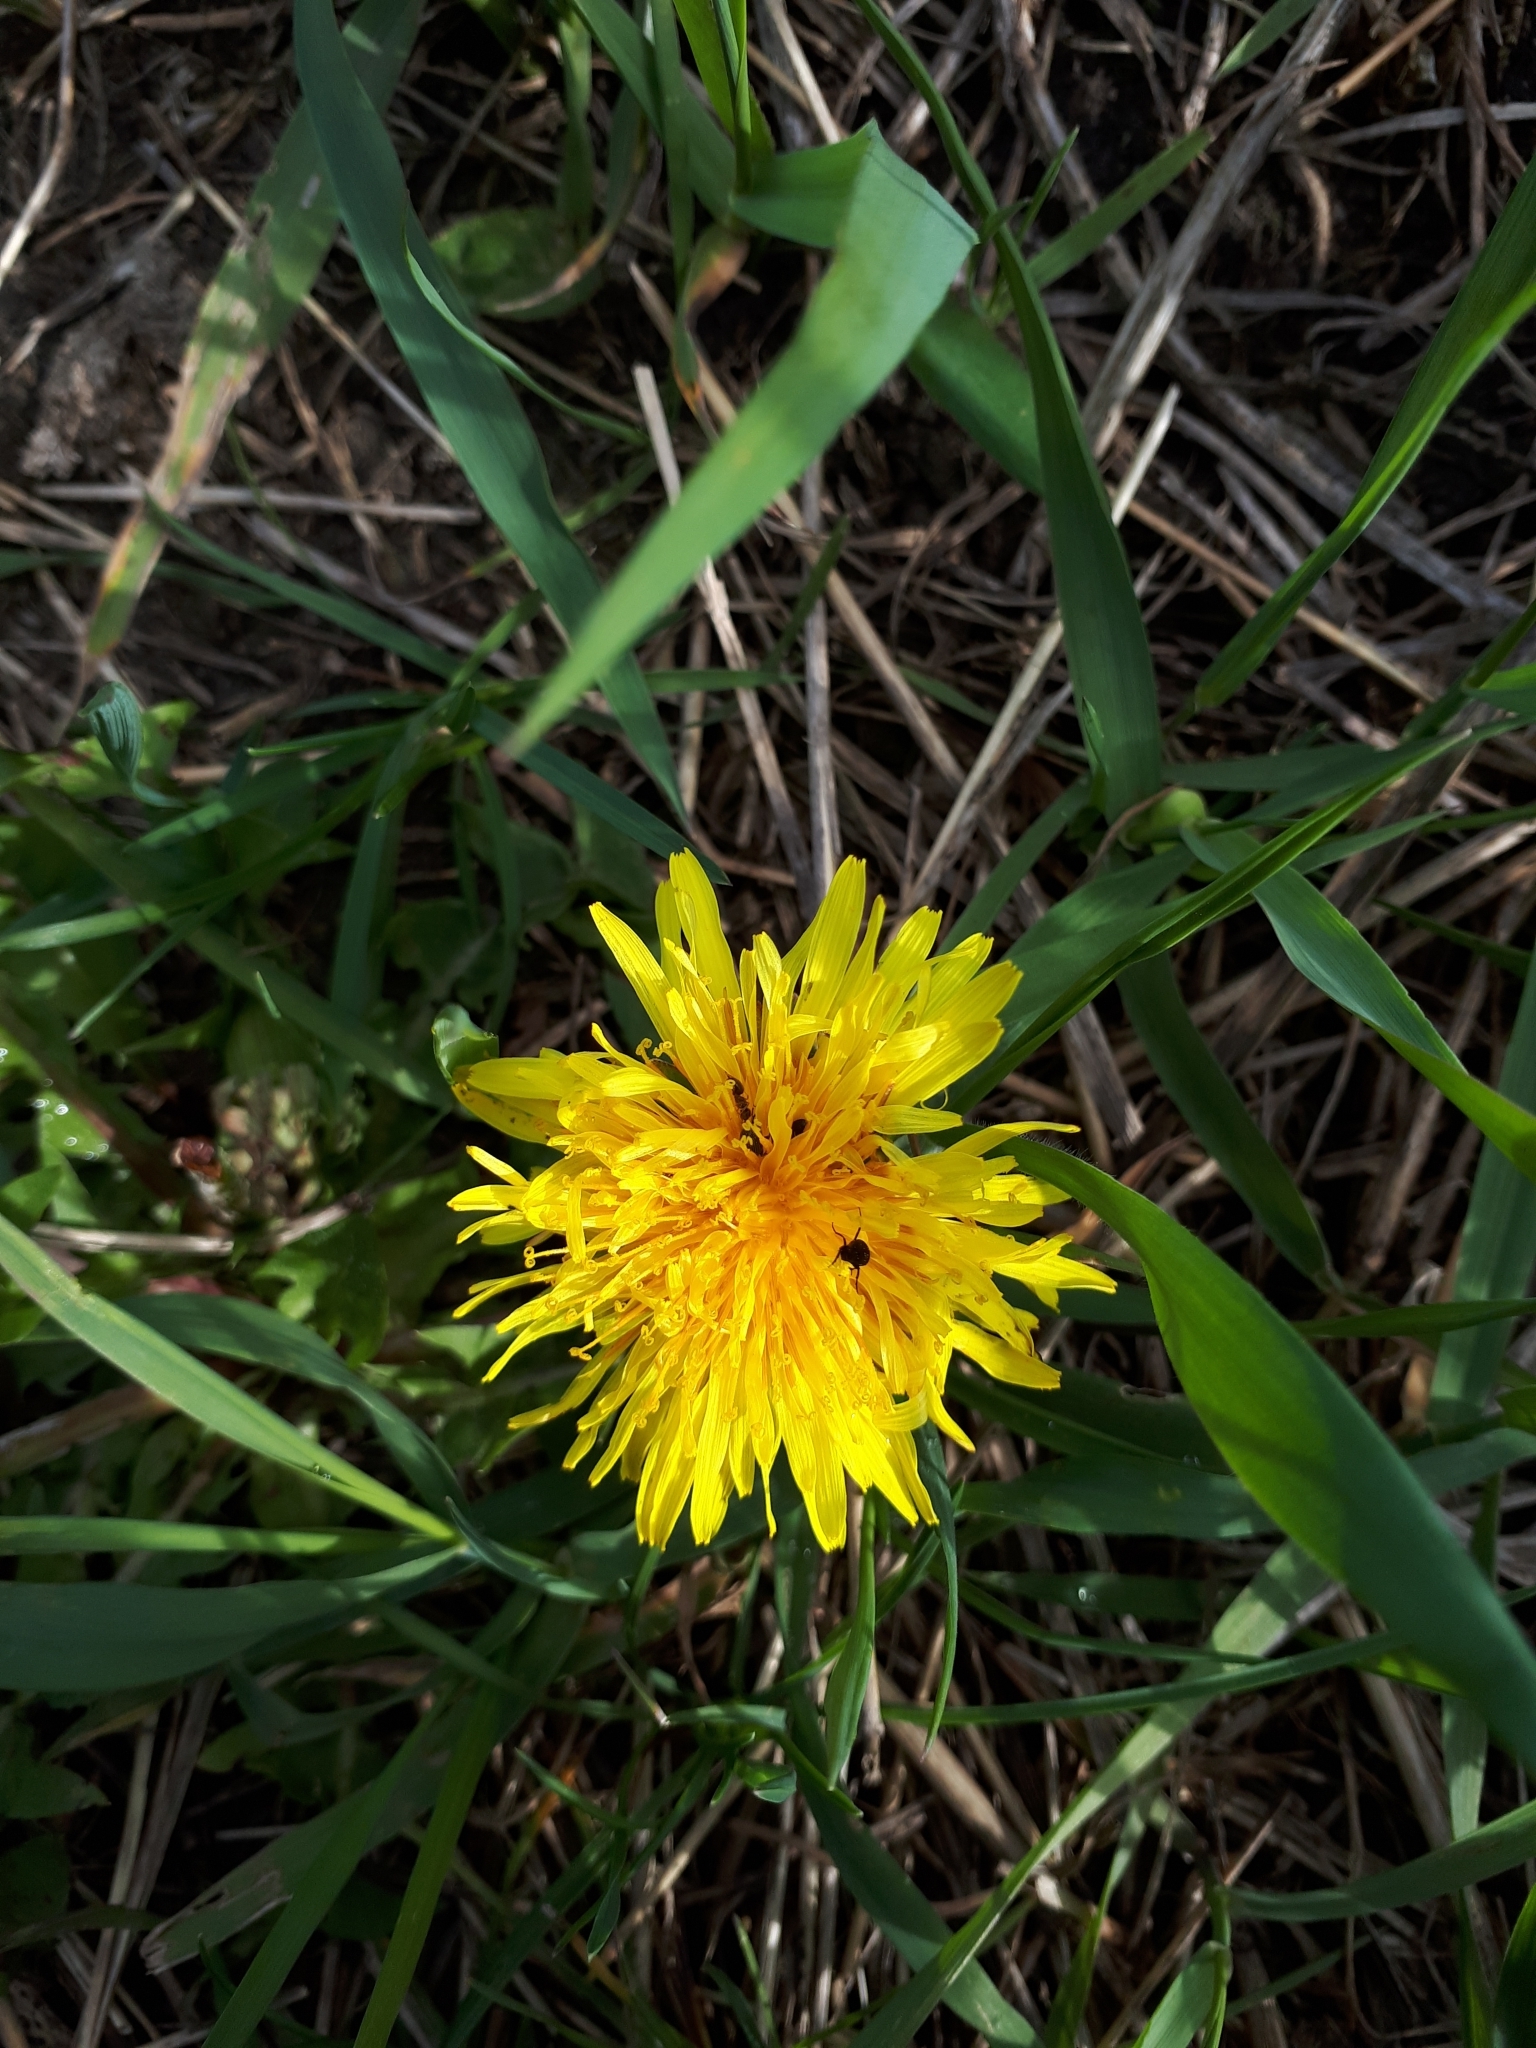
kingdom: Plantae
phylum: Tracheophyta
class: Magnoliopsida
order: Asterales
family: Asteraceae
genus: Taraxacum
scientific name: Taraxacum officinale
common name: Common dandelion
